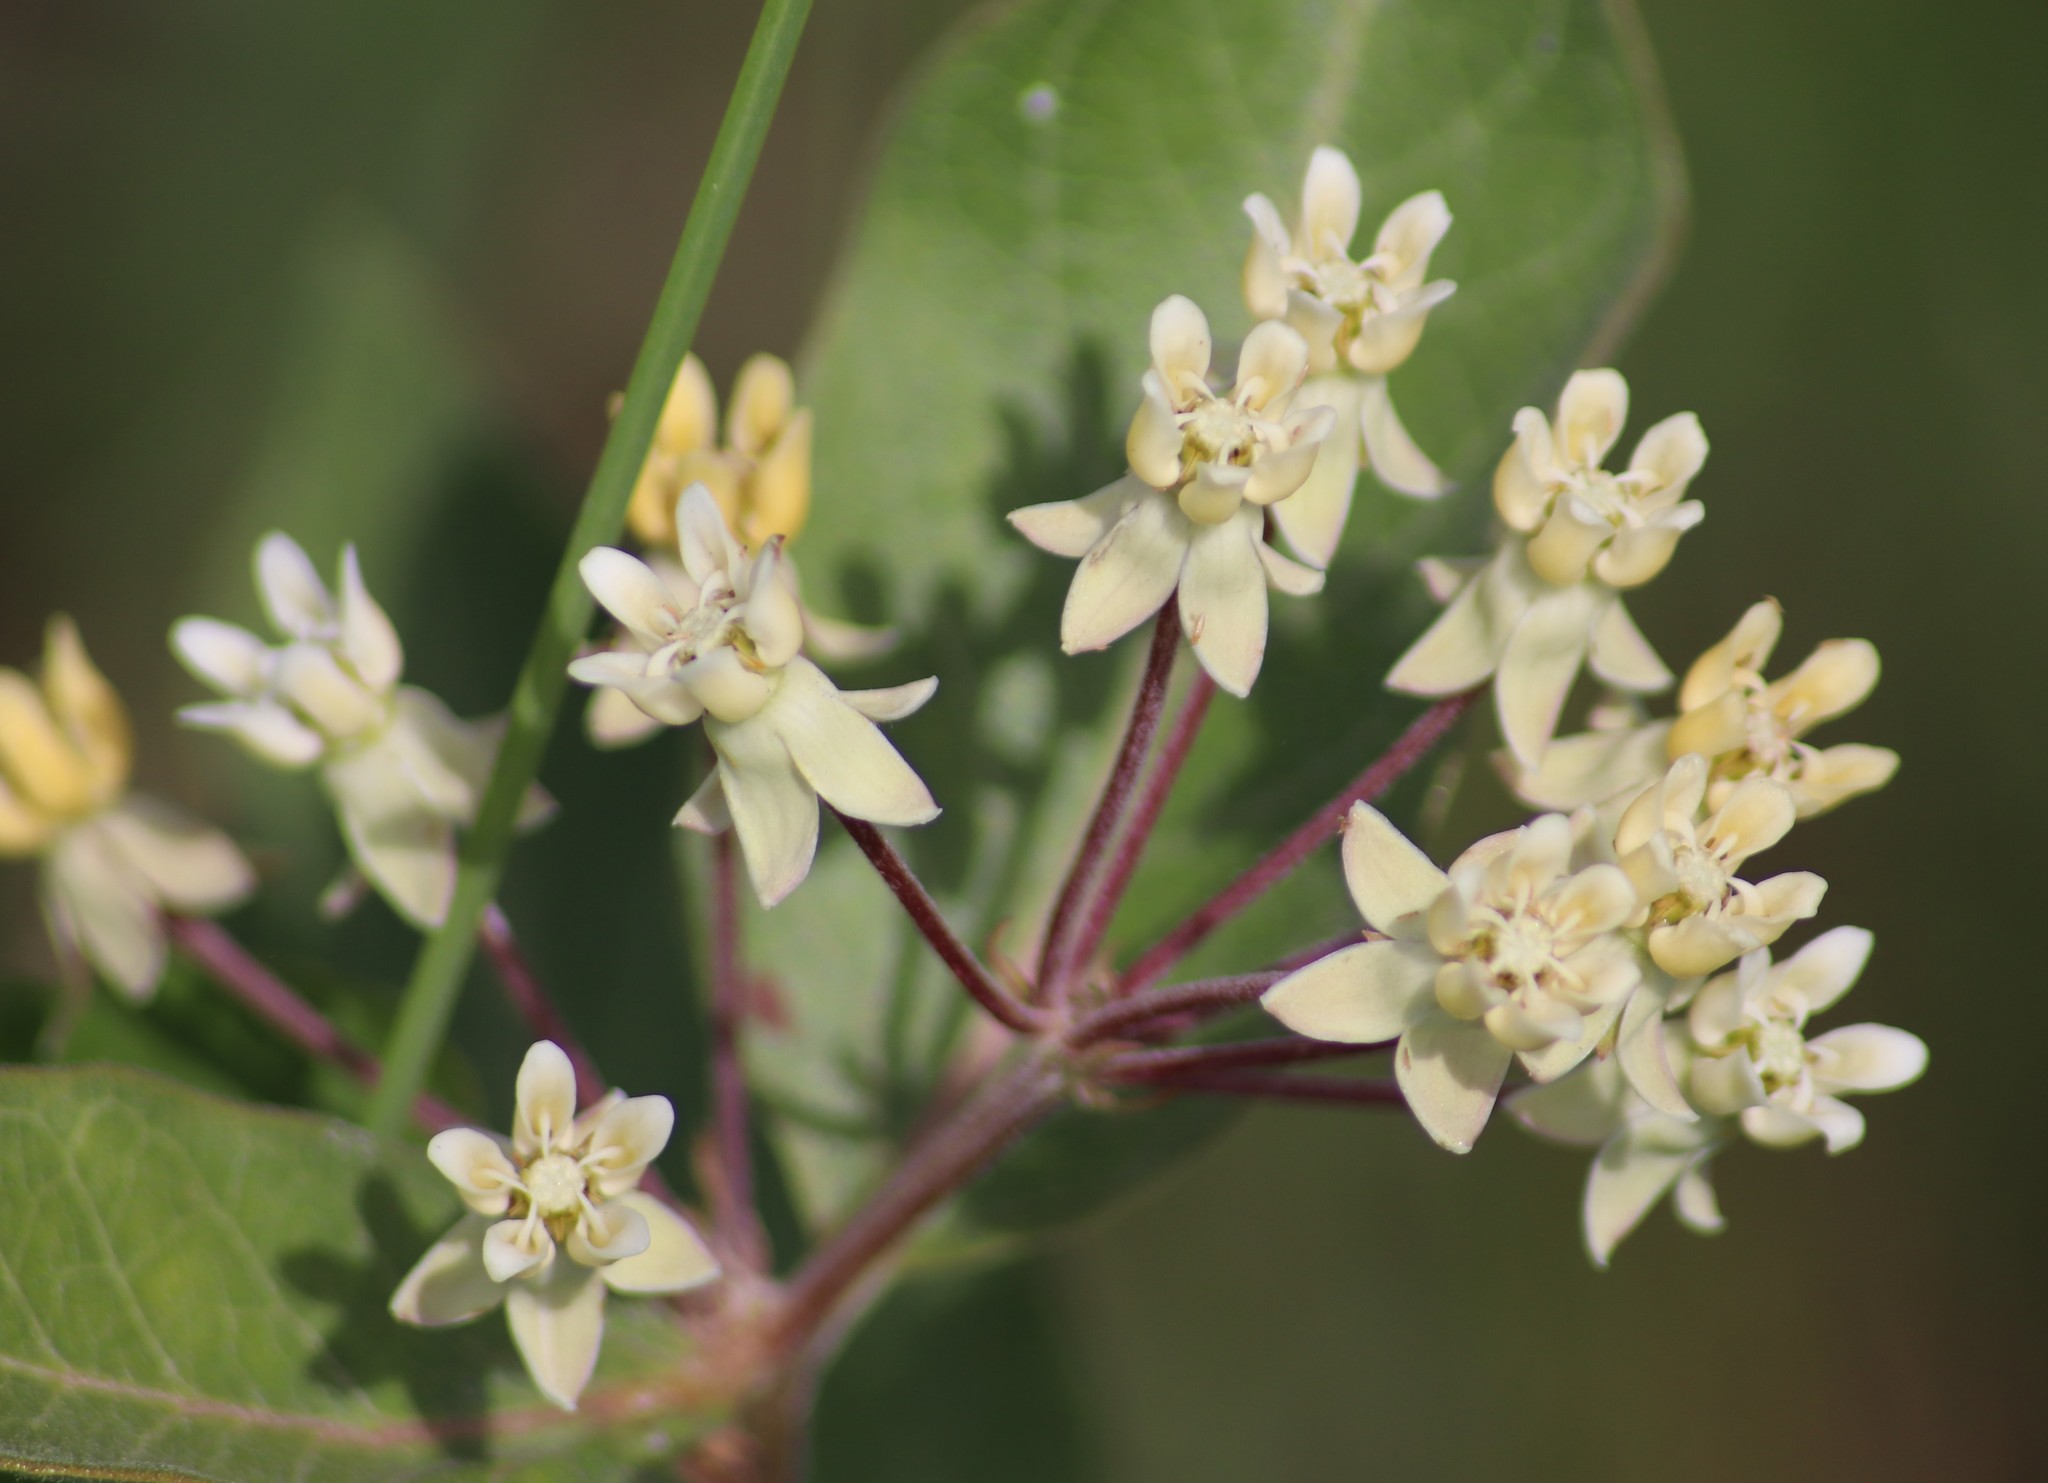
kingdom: Plantae
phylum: Tracheophyta
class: Magnoliopsida
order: Gentianales
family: Apocynaceae
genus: Asclepias
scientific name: Asclepias ovalifolia
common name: Dwarf milkweed
